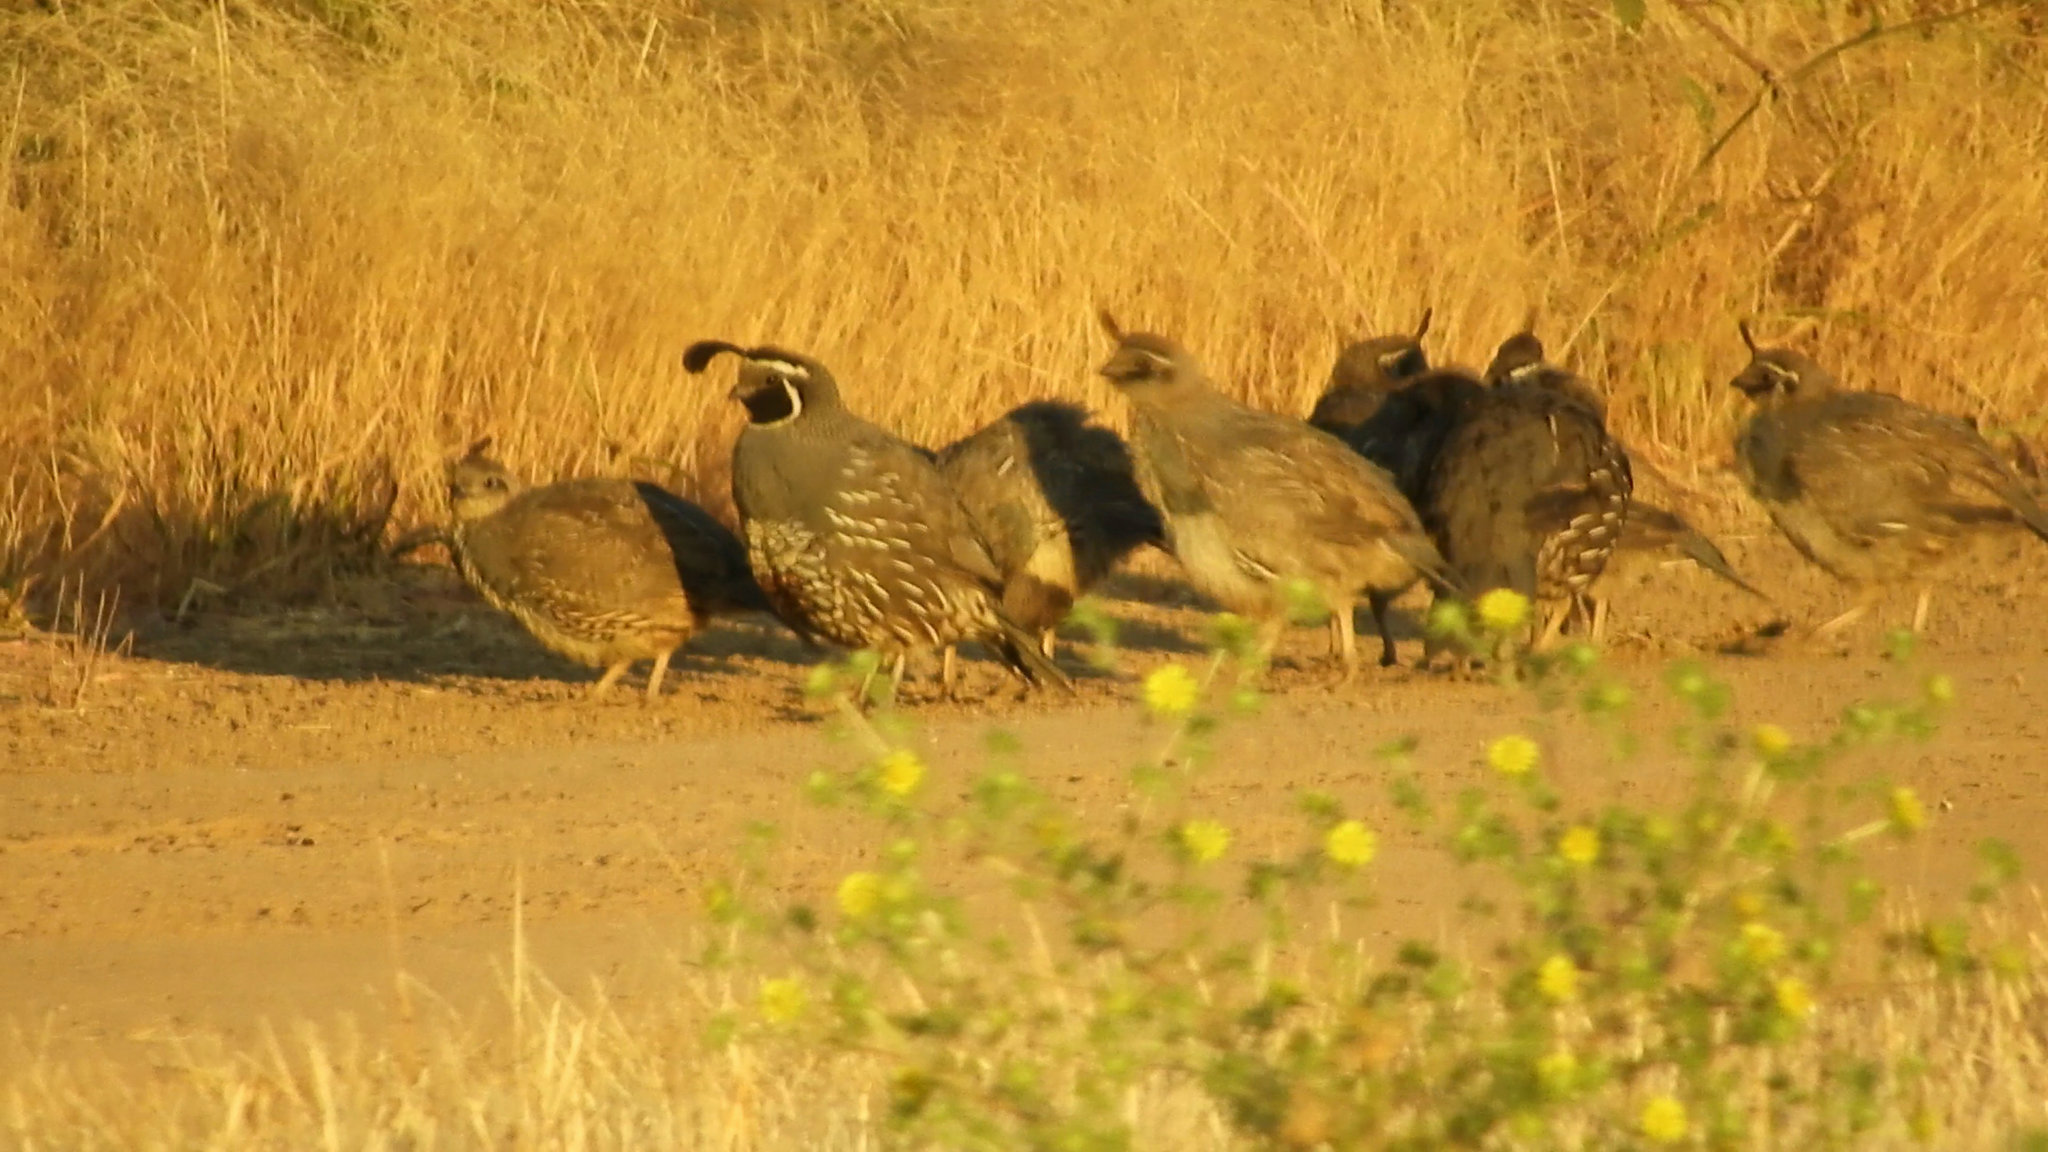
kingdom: Animalia
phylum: Chordata
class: Aves
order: Galliformes
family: Odontophoridae
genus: Callipepla
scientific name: Callipepla californica
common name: California quail
